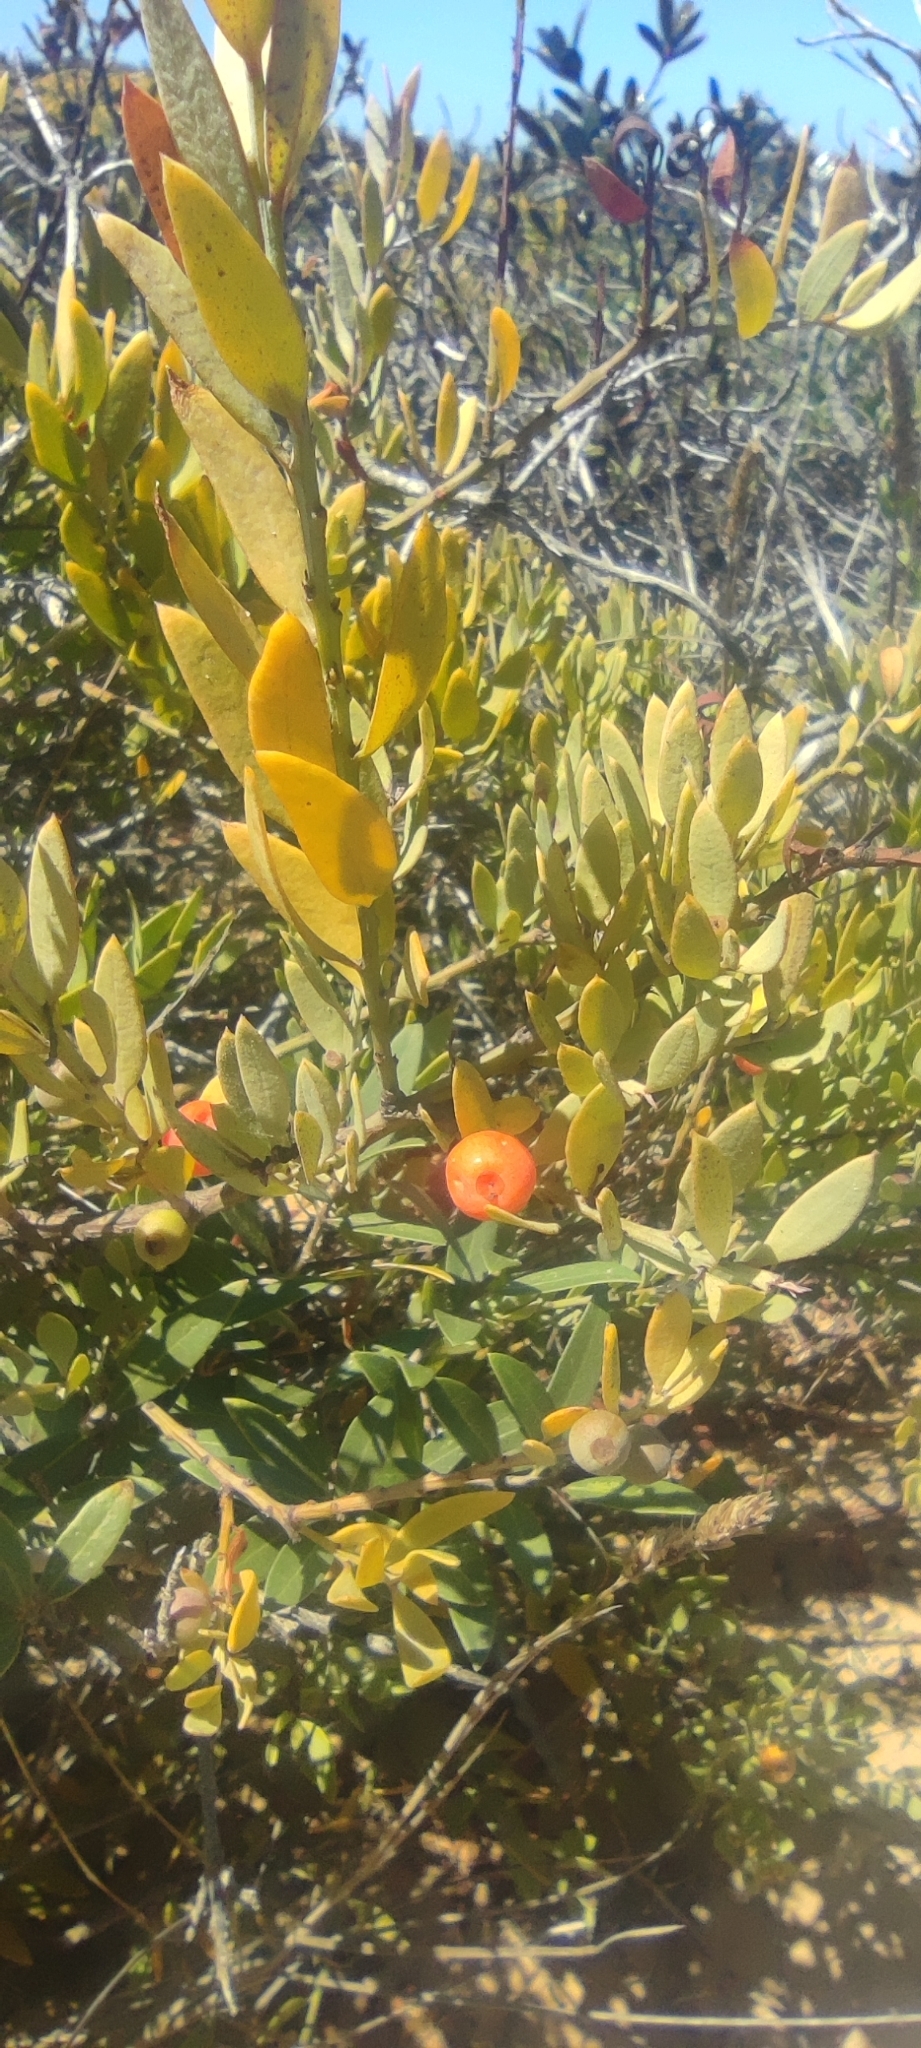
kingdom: Plantae
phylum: Tracheophyta
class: Magnoliopsida
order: Santalales
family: Santalaceae
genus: Osyris
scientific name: Osyris lanceolata
